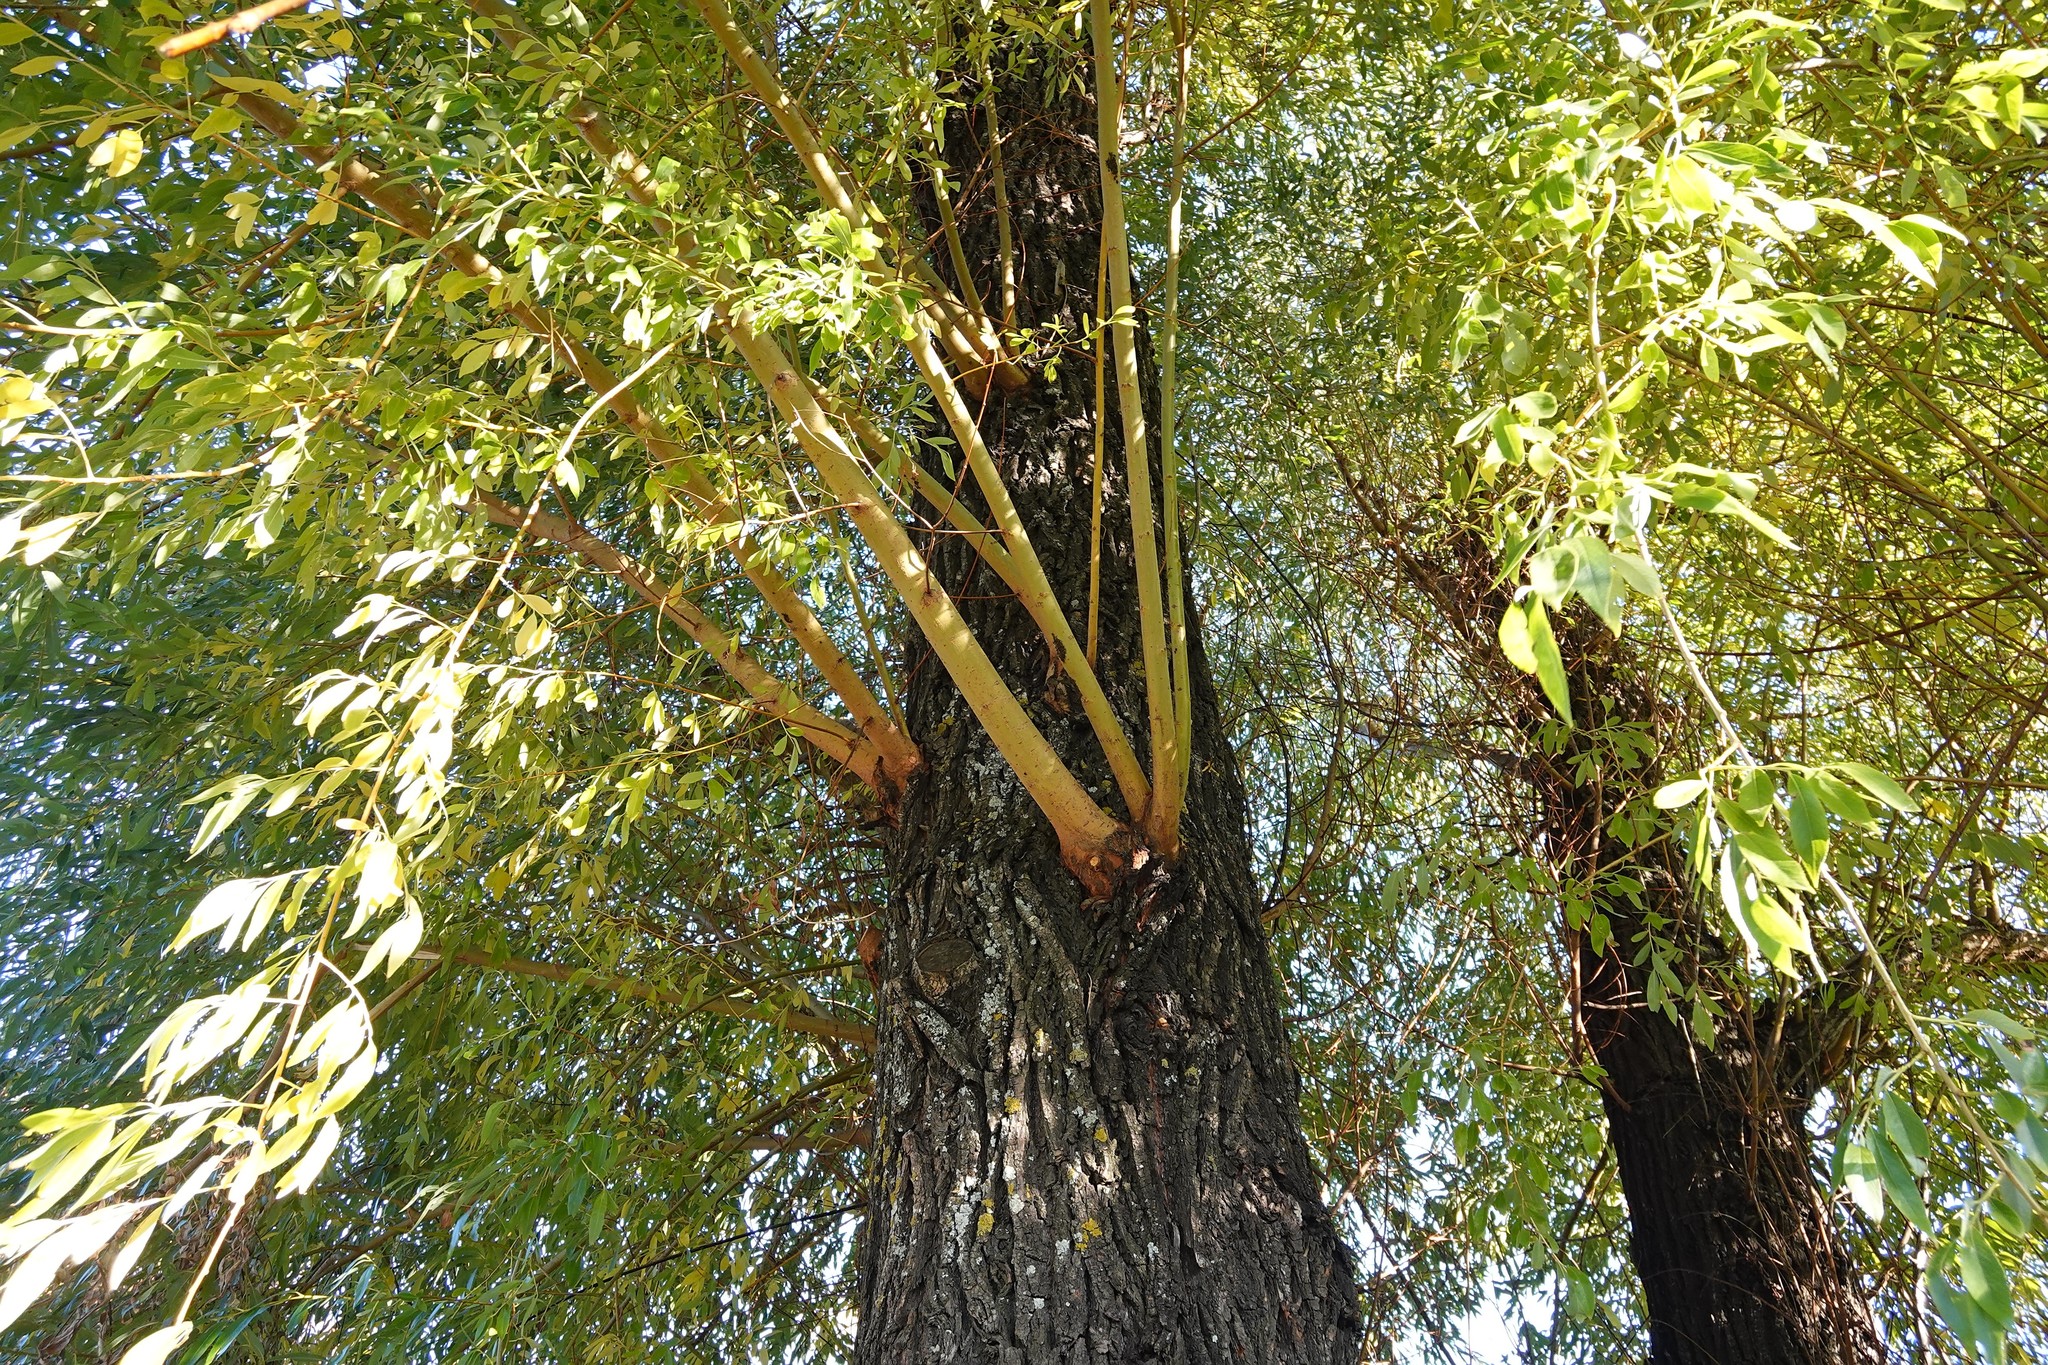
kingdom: Animalia
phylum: Arthropoda
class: Insecta
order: Hemiptera
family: Aphididae
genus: Tuberolachnus
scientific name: Tuberolachnus salignus
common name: Giant willow aphid
